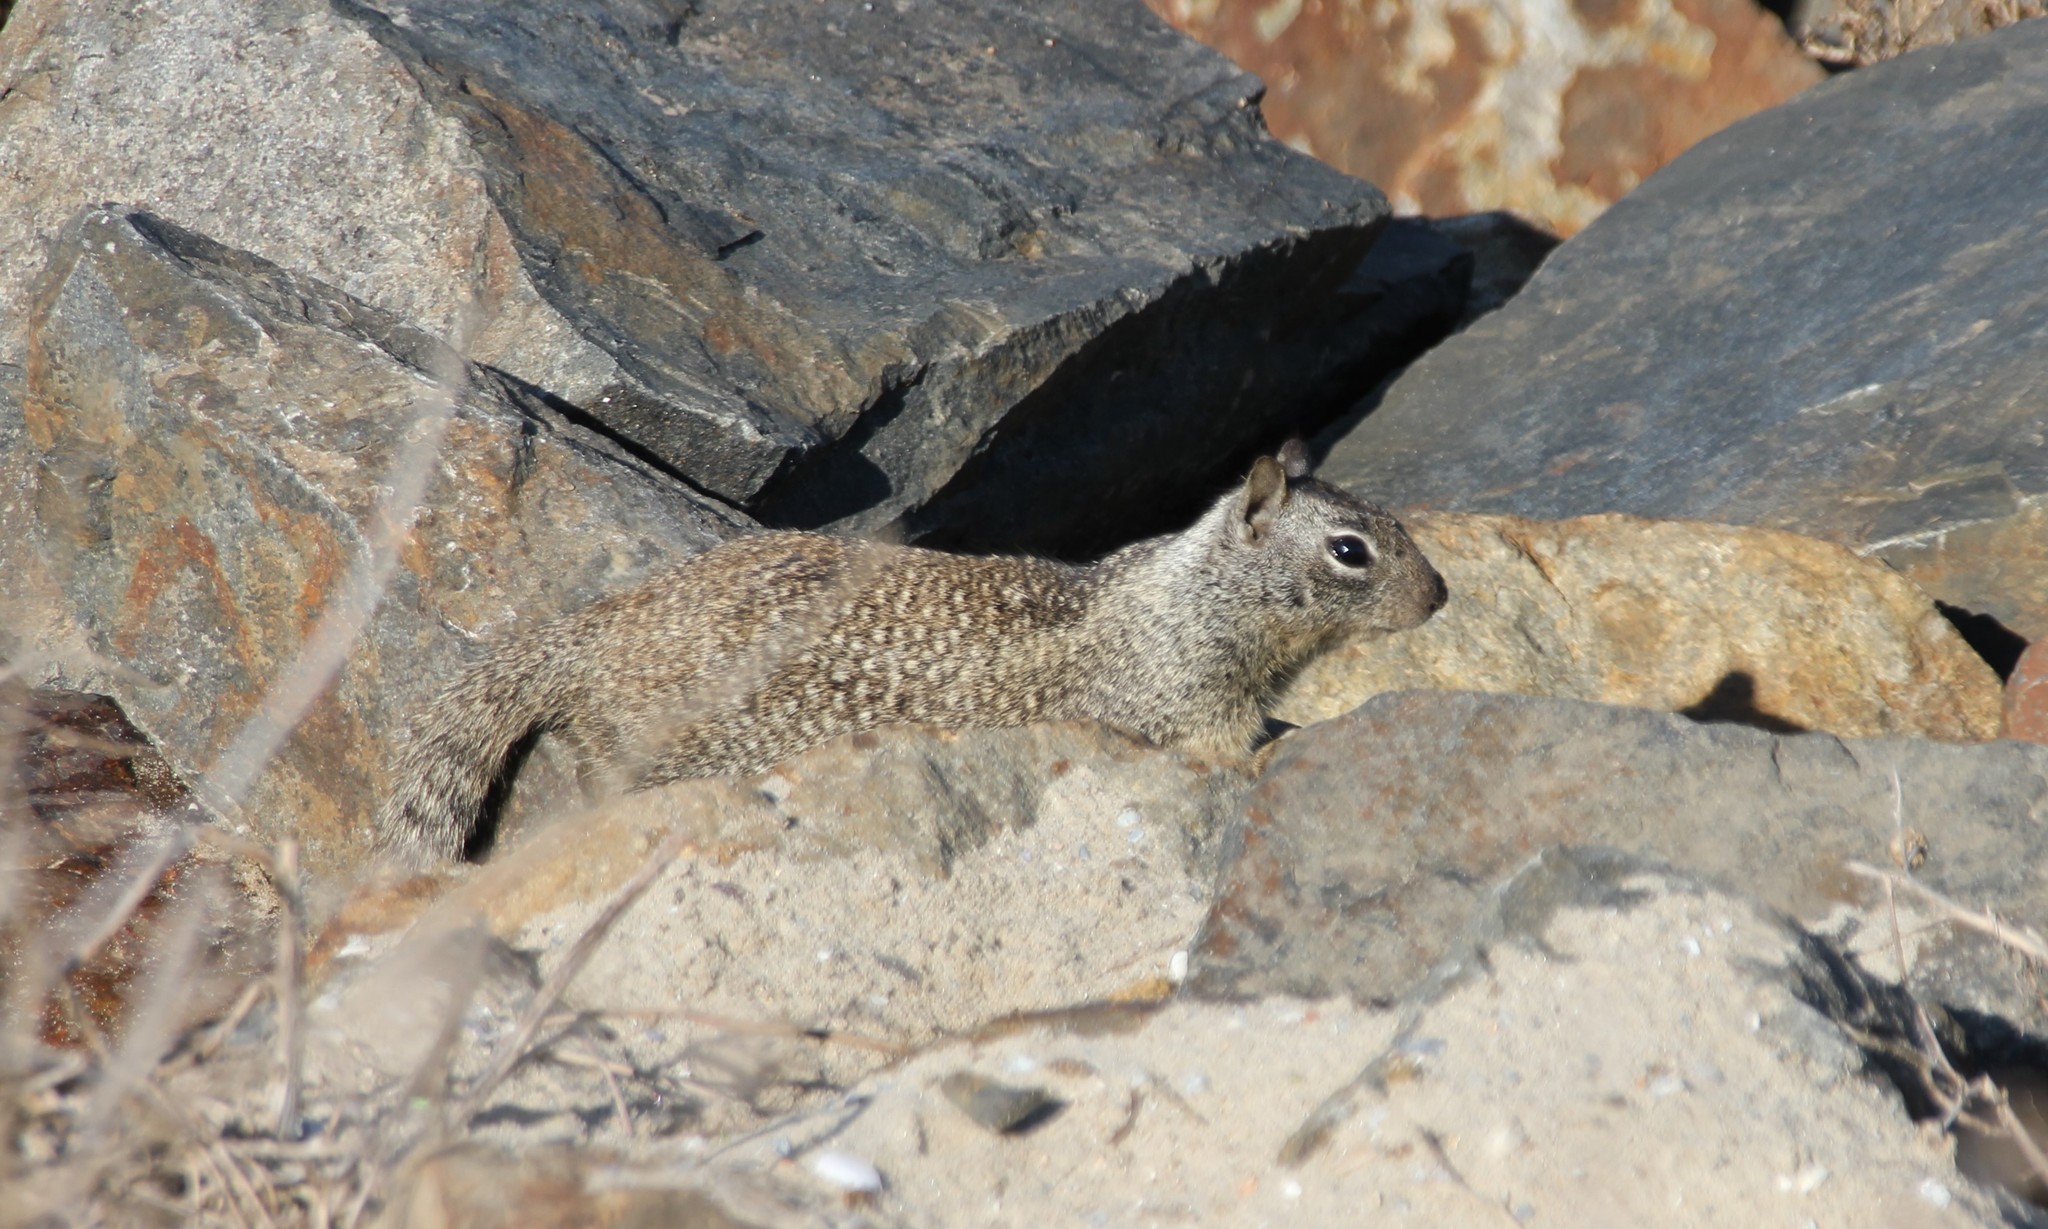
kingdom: Animalia
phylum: Chordata
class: Mammalia
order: Rodentia
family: Sciuridae
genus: Otospermophilus
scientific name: Otospermophilus beecheyi
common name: California ground squirrel
